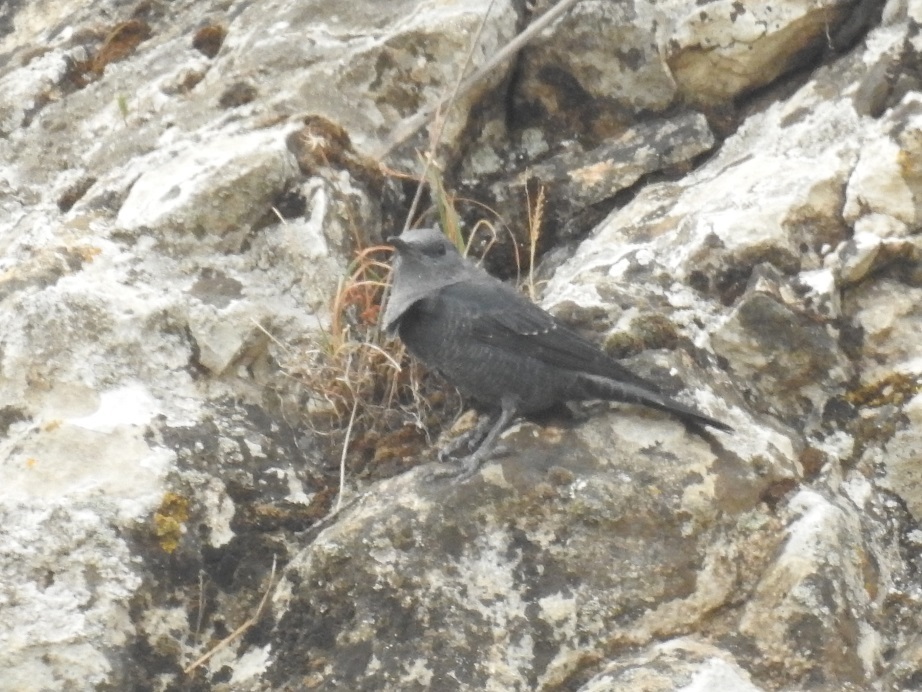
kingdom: Animalia
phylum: Chordata
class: Aves
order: Passeriformes
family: Muscicapidae
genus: Monticola
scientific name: Monticola solitarius
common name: Blue rock thrush
